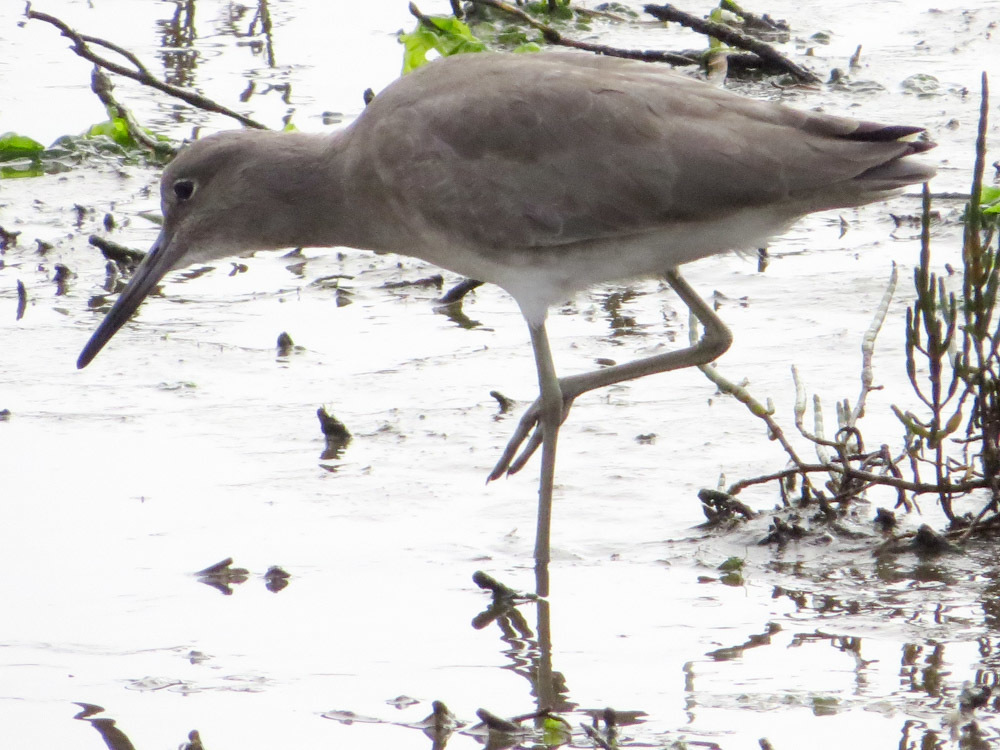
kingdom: Animalia
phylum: Chordata
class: Aves
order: Charadriiformes
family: Scolopacidae
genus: Tringa
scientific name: Tringa semipalmata
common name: Willet
